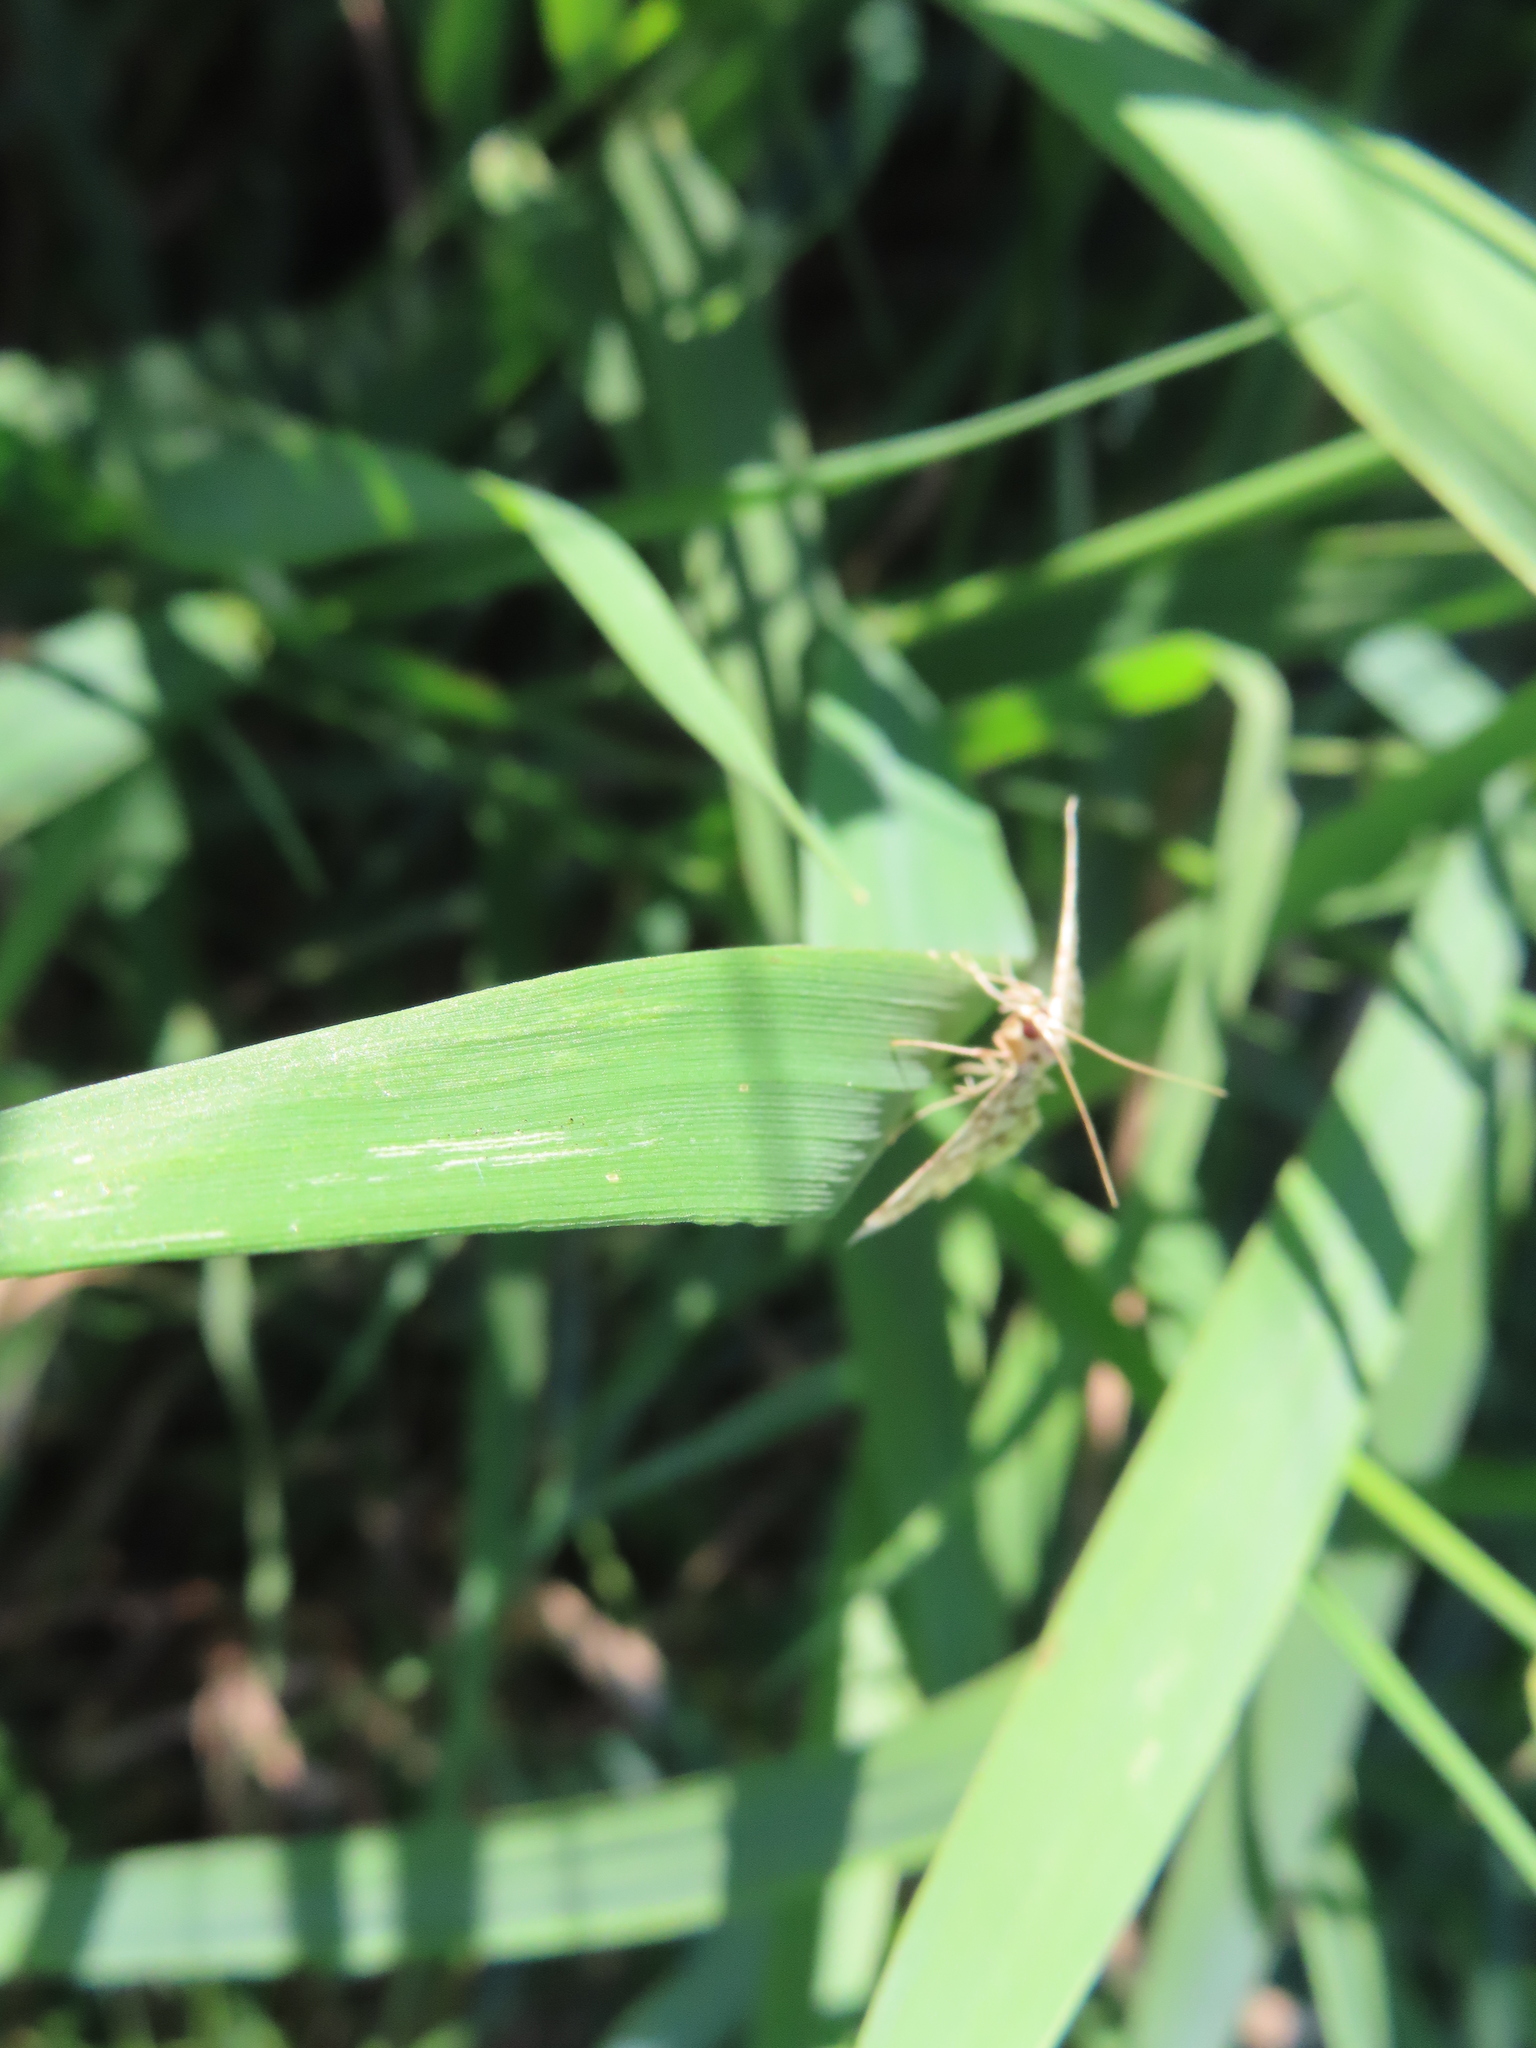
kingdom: Animalia
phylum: Arthropoda
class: Insecta
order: Lepidoptera
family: Crambidae
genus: Lygropia
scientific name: Lygropia rivulalis
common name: Bog lygropia moth
